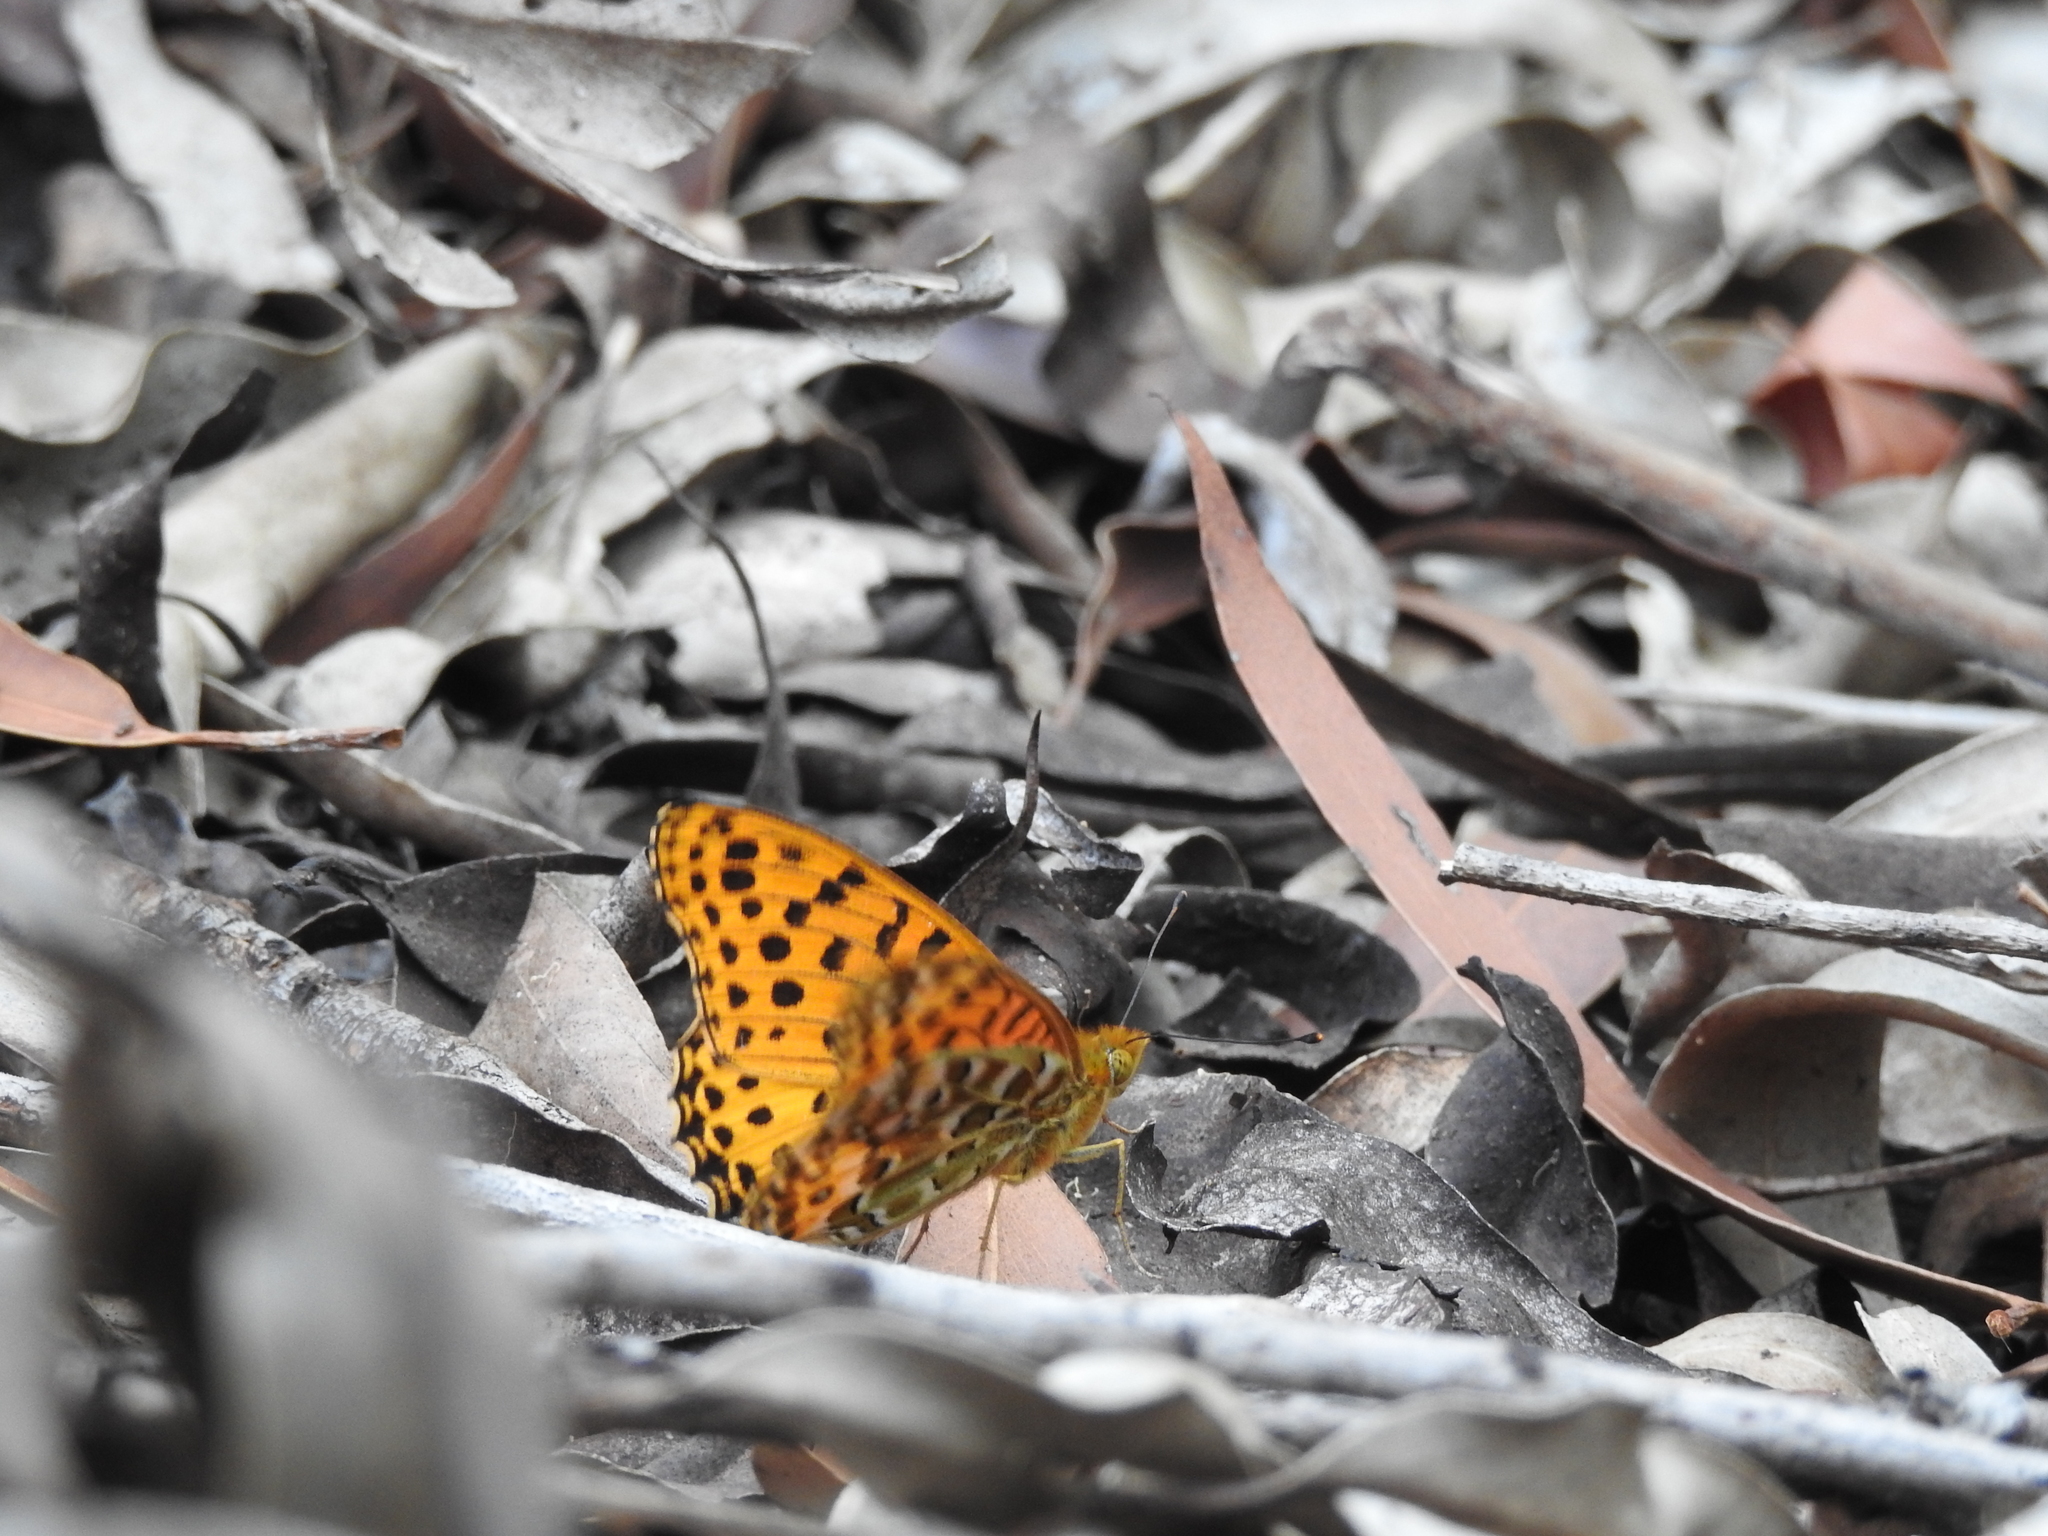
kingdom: Animalia
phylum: Arthropoda
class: Insecta
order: Lepidoptera
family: Nymphalidae
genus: Argynnis
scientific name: Argynnis hyperbius
